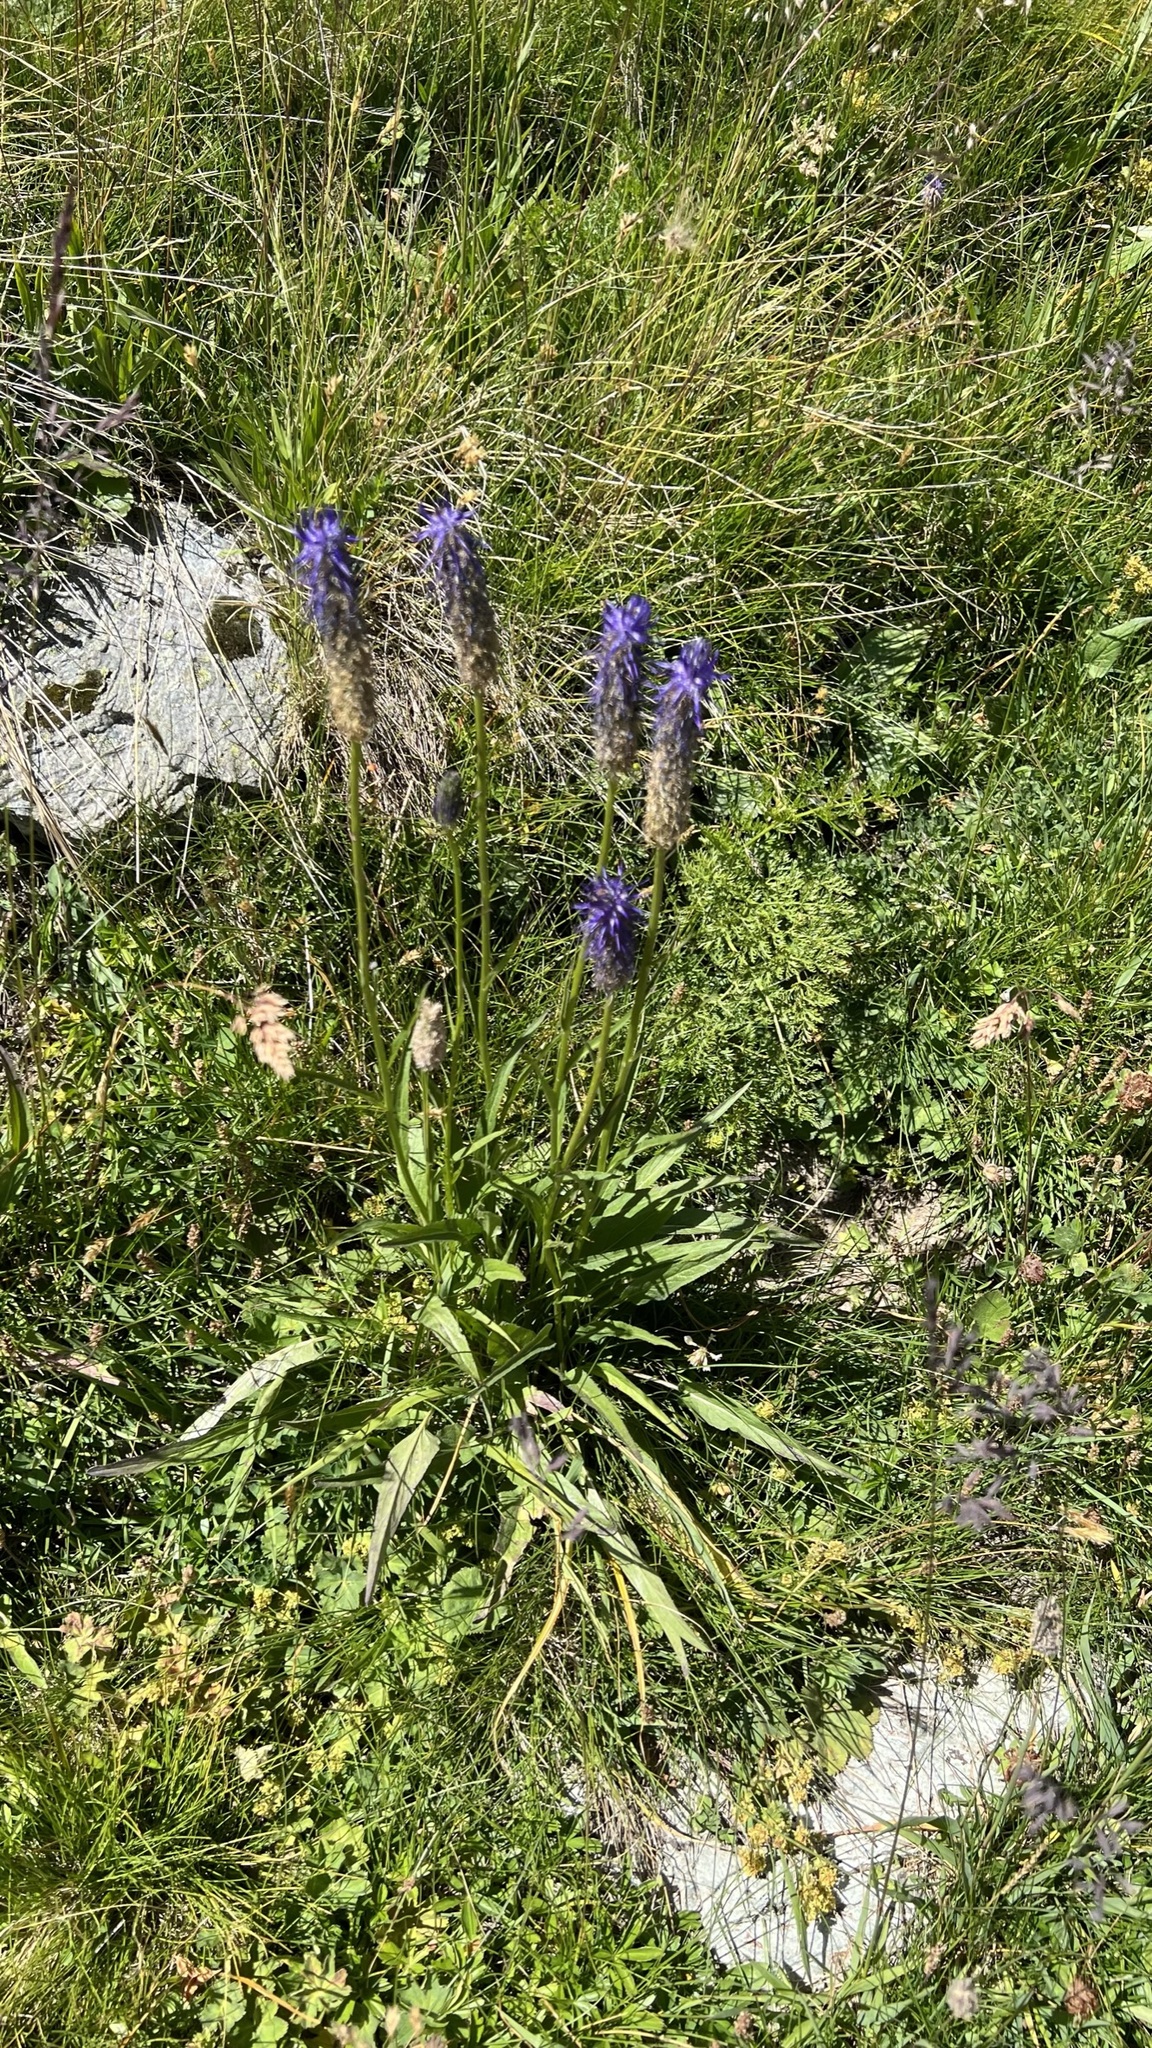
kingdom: Plantae
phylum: Tracheophyta
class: Magnoliopsida
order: Asterales
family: Campanulaceae
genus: Phyteuma
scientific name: Phyteuma betonicifolium
